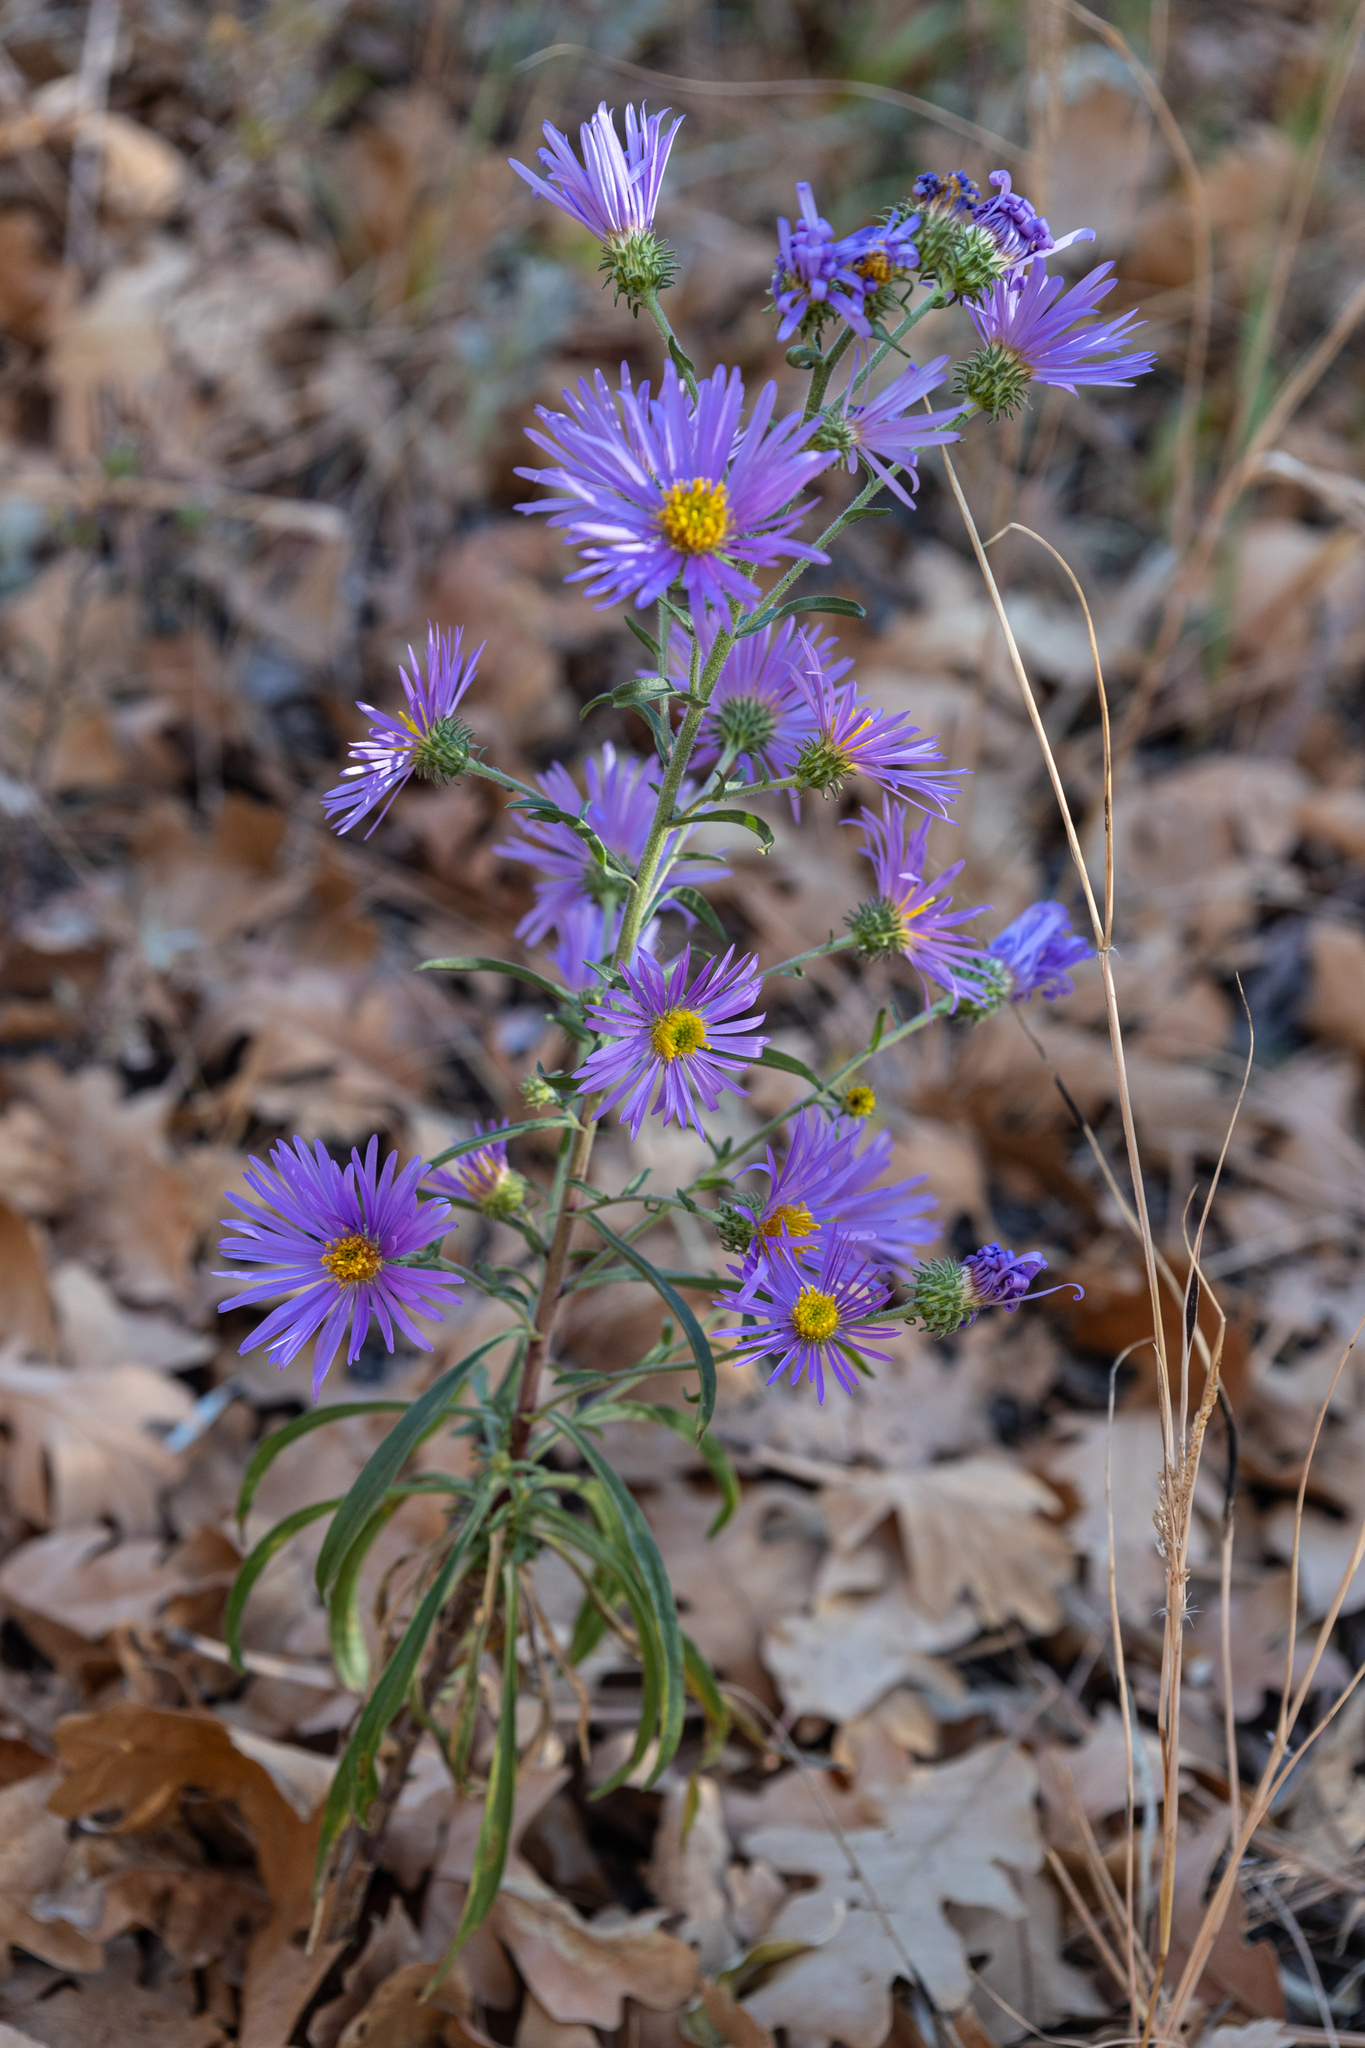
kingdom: Plantae
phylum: Tracheophyta
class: Magnoliopsida
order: Asterales
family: Asteraceae
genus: Dieteria
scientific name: Dieteria canescens
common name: Hoary-aster
